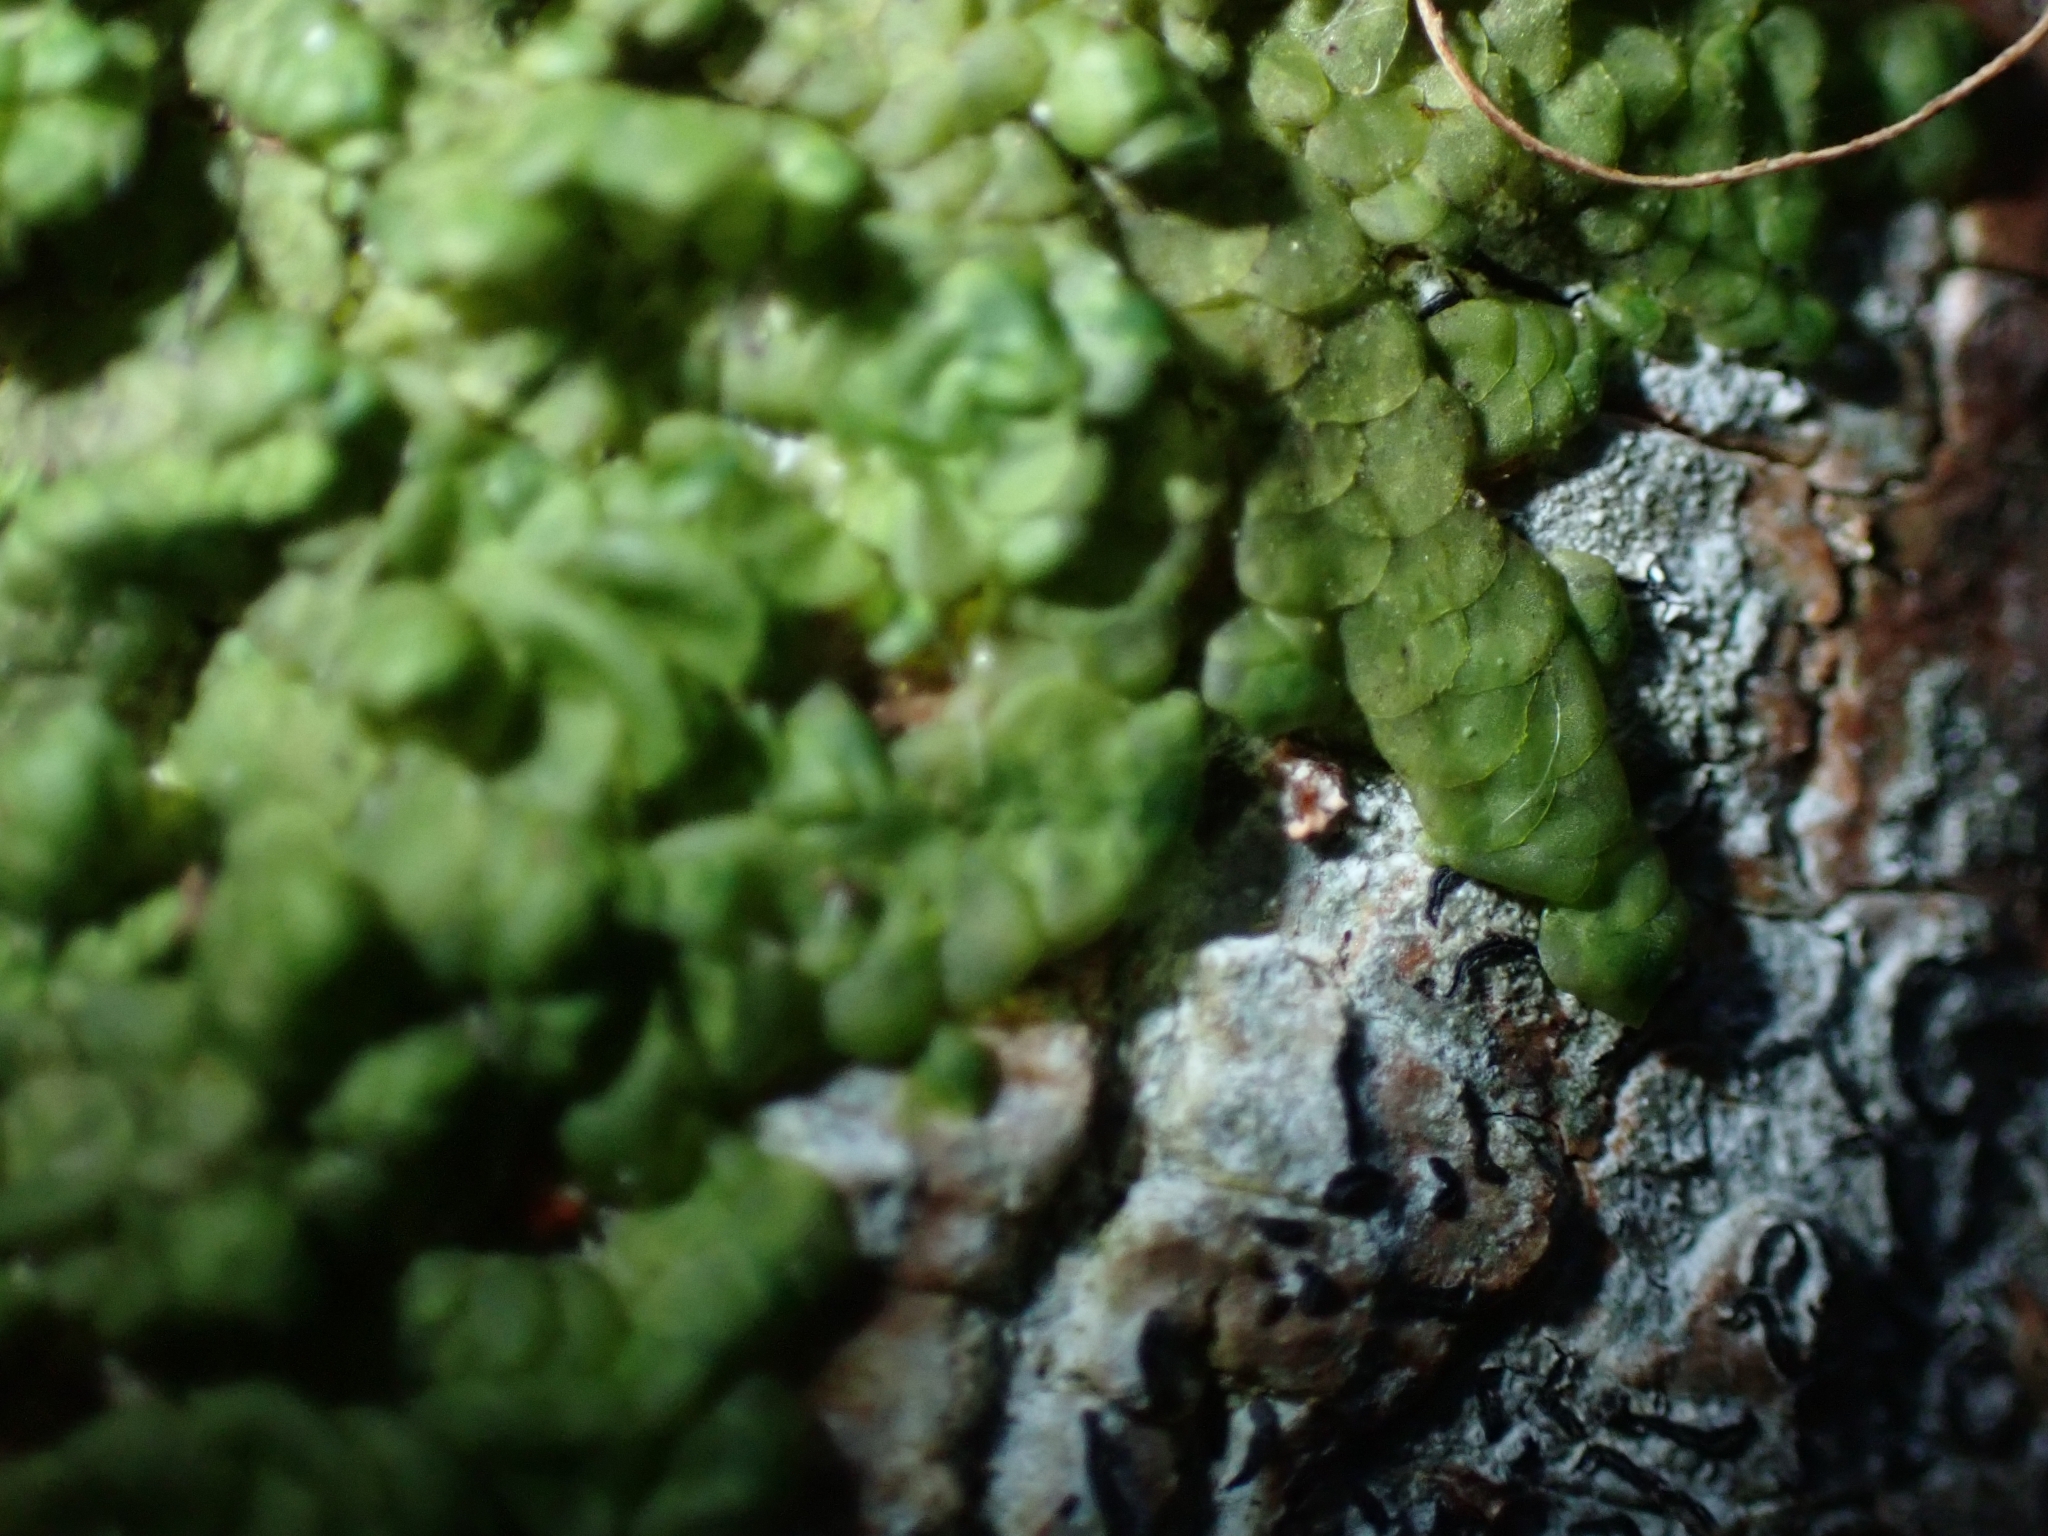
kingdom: Plantae
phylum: Marchantiophyta
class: Jungermanniopsida
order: Porellales
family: Radulaceae
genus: Radula
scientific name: Radula complanata
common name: Flat-leaved scalewort
